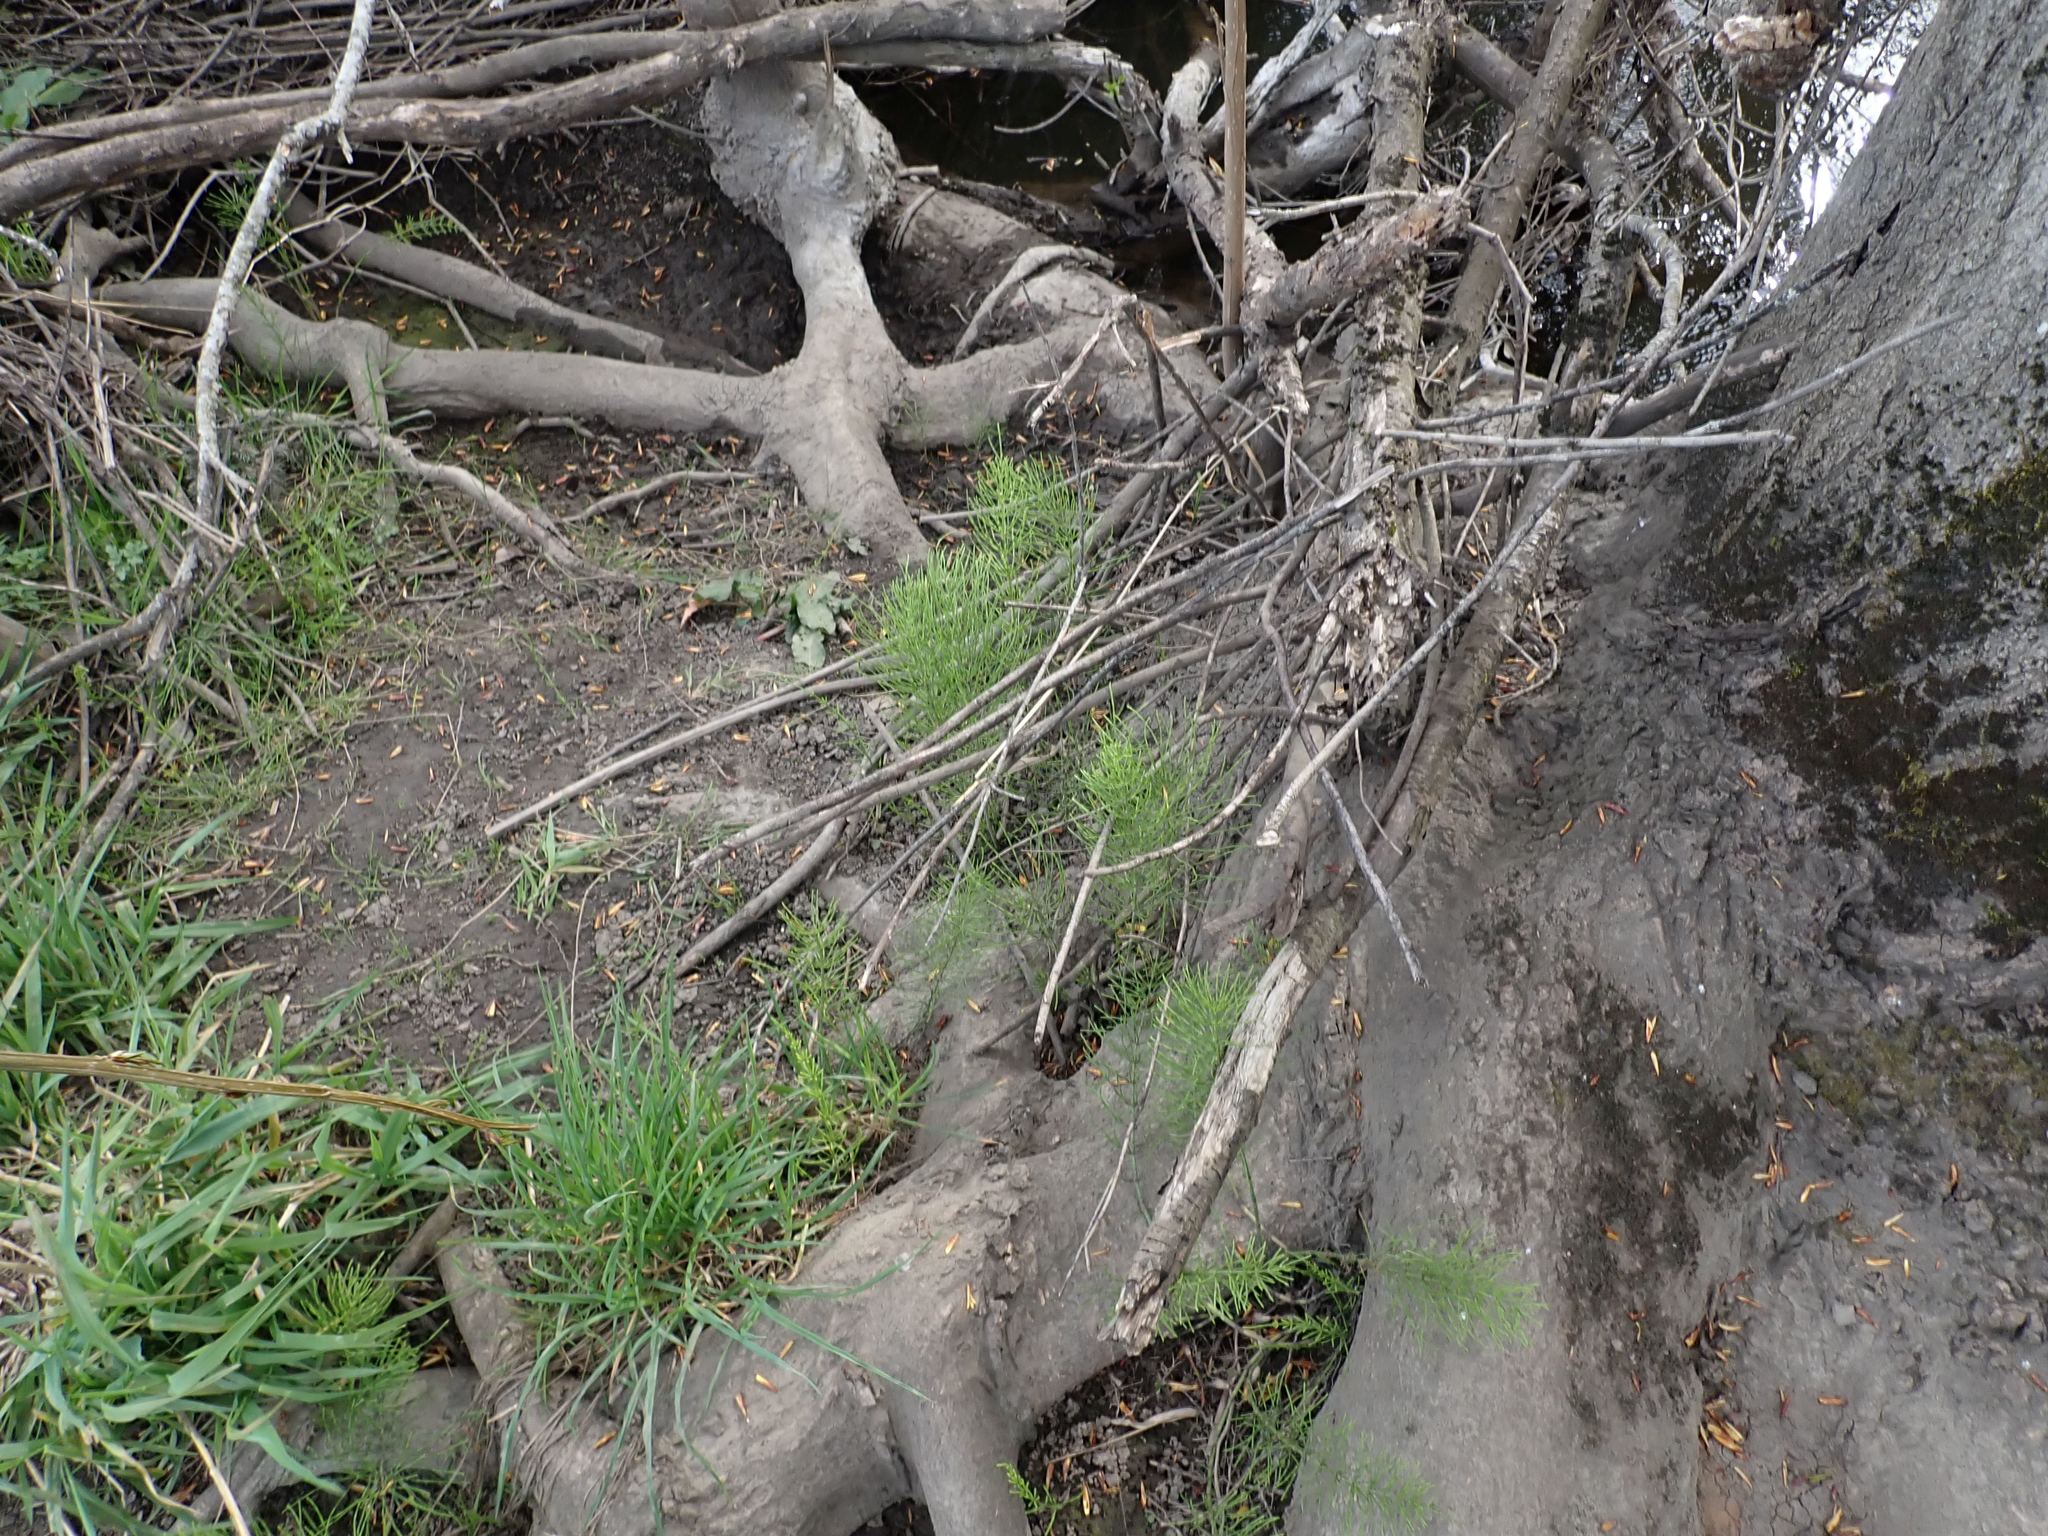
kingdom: Plantae
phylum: Tracheophyta
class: Polypodiopsida
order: Equisetales
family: Equisetaceae
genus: Equisetum
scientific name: Equisetum arvense
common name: Field horsetail
